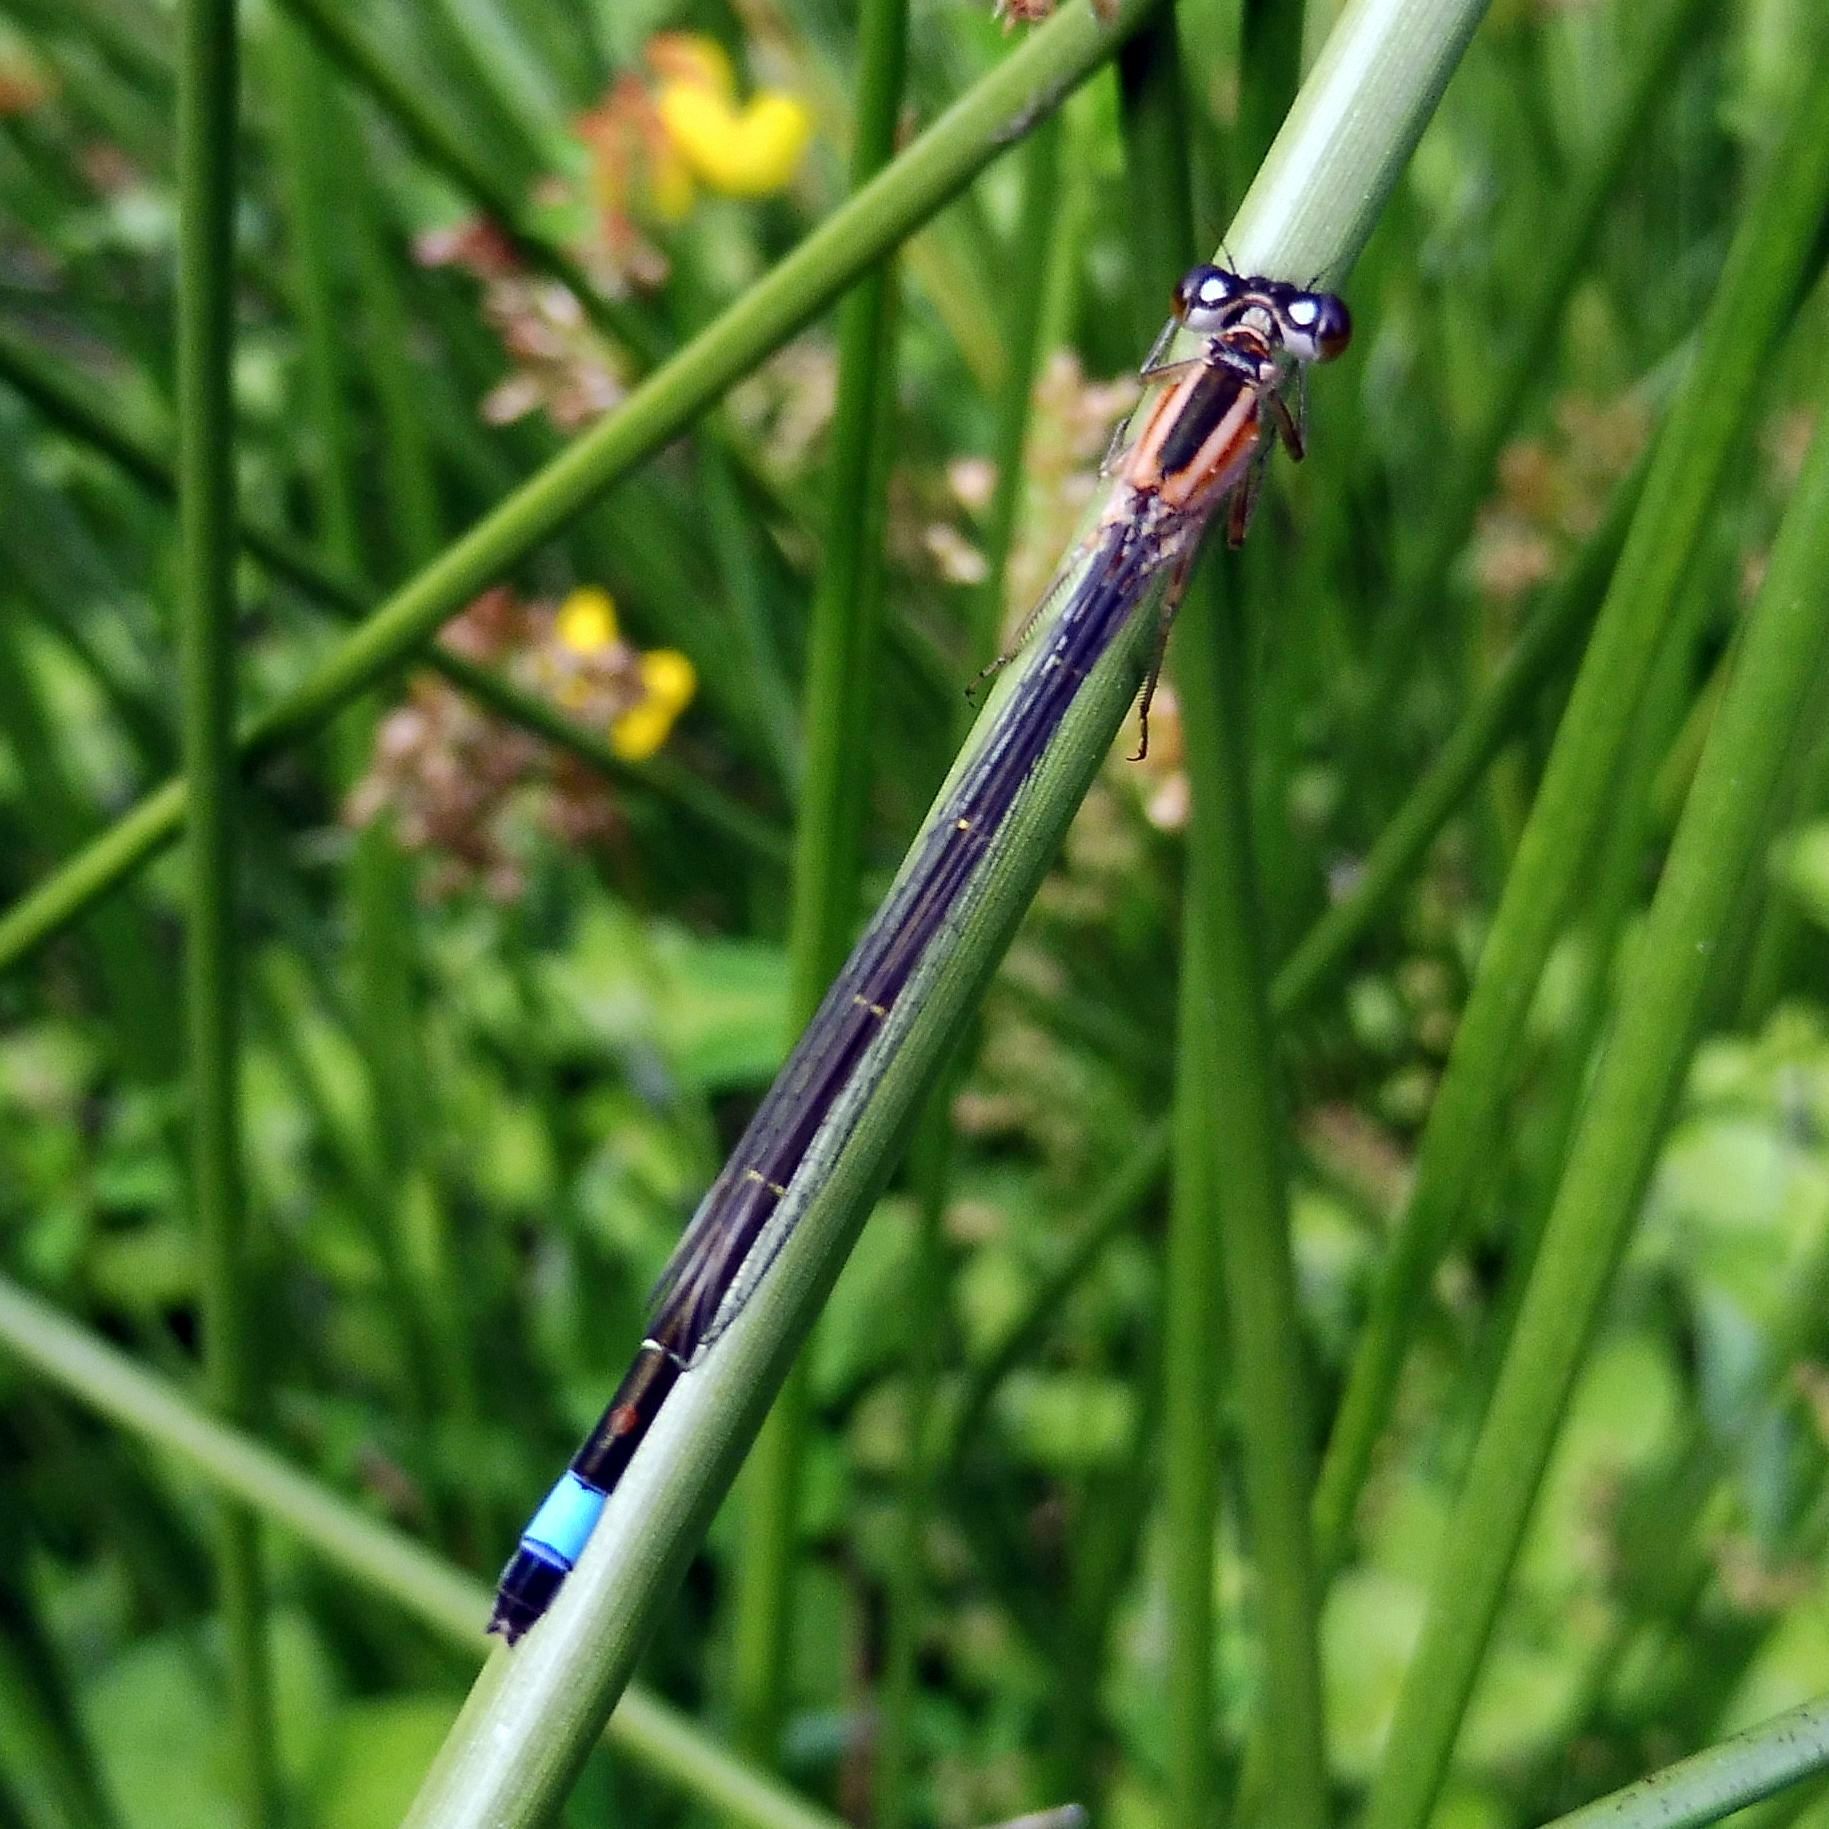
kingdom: Animalia
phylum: Arthropoda
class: Insecta
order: Odonata
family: Coenagrionidae
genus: Ischnura
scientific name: Ischnura elegans
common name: Blue-tailed damselfly
